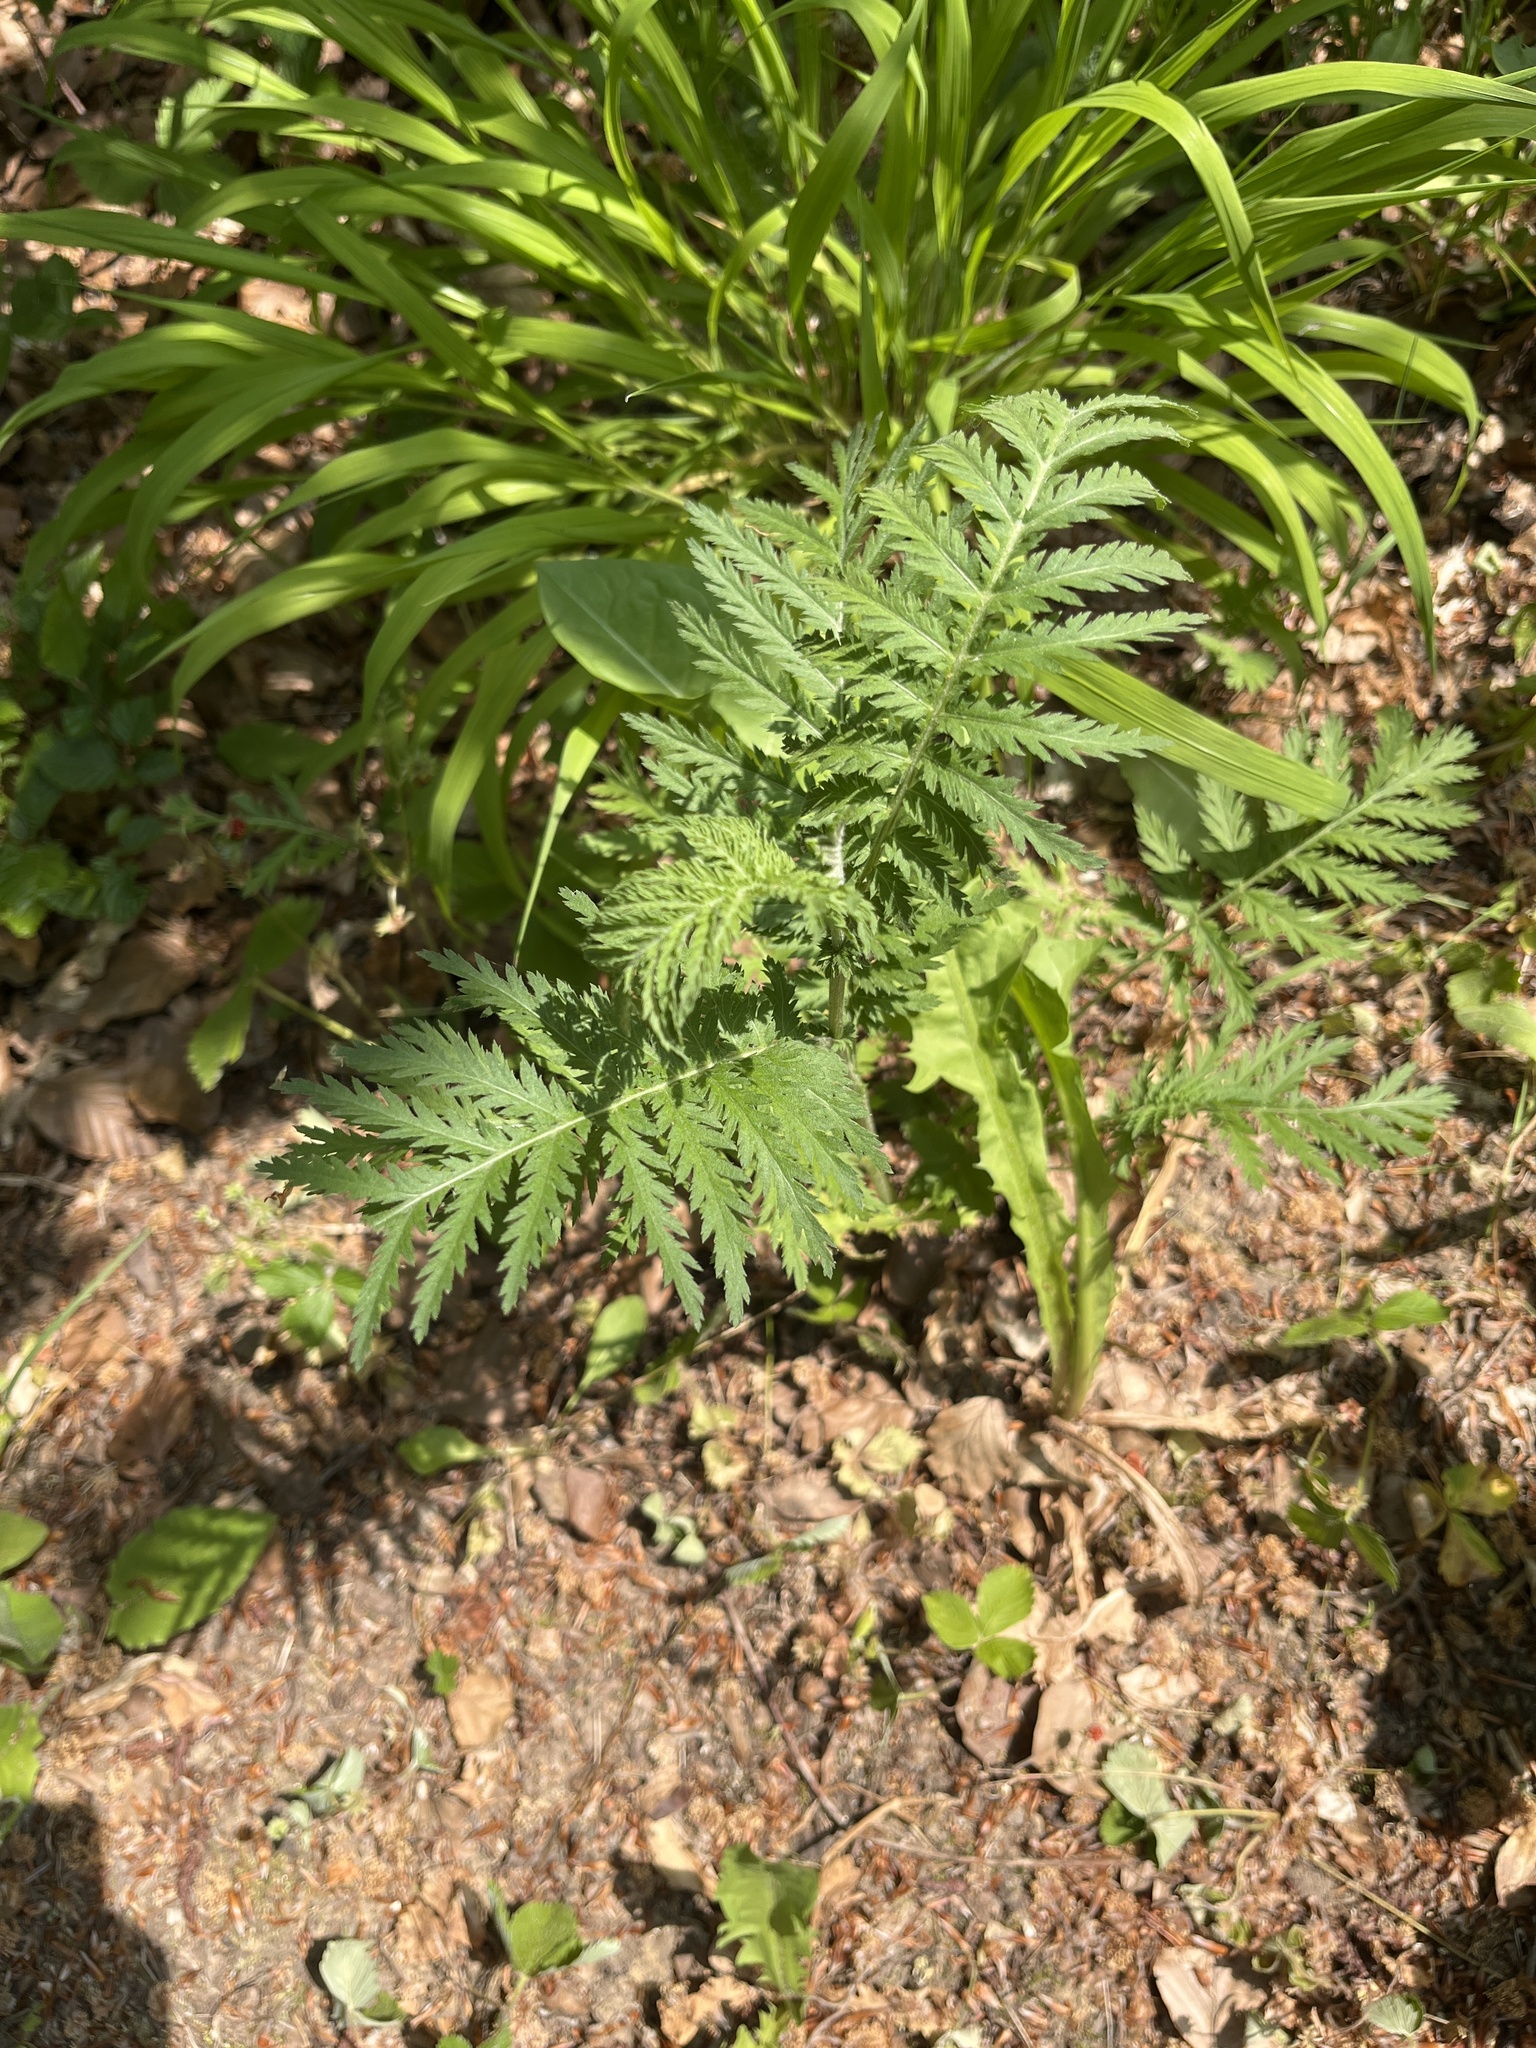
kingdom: Plantae
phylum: Tracheophyta
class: Magnoliopsida
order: Asterales
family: Asteraceae
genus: Tanacetum
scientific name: Tanacetum vulgare
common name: Common tansy
